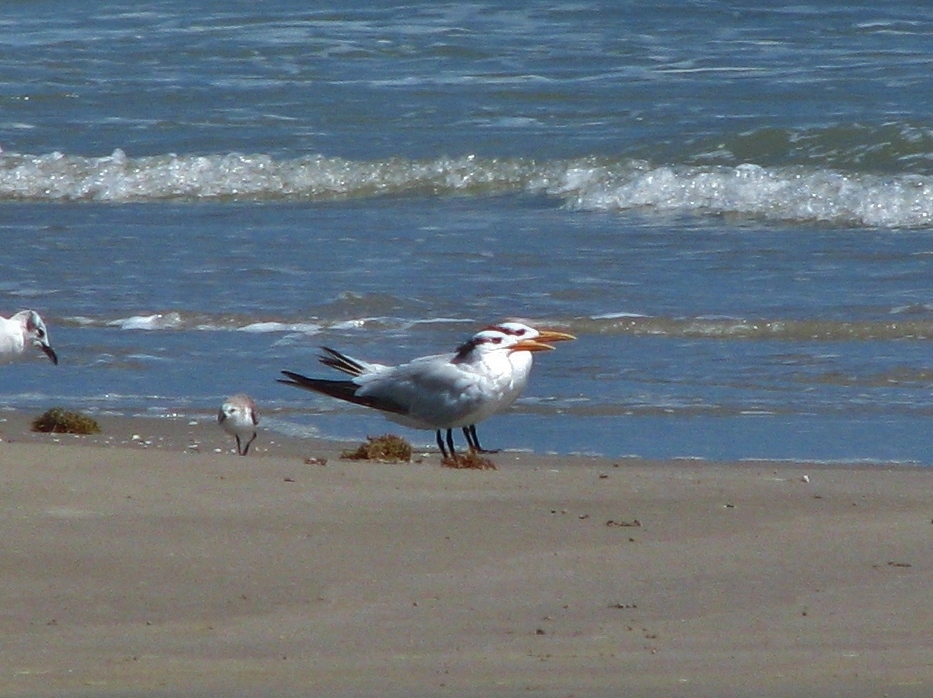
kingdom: Animalia
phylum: Chordata
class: Aves
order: Charadriiformes
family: Laridae
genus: Thalasseus
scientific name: Thalasseus maximus
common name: Royal tern
